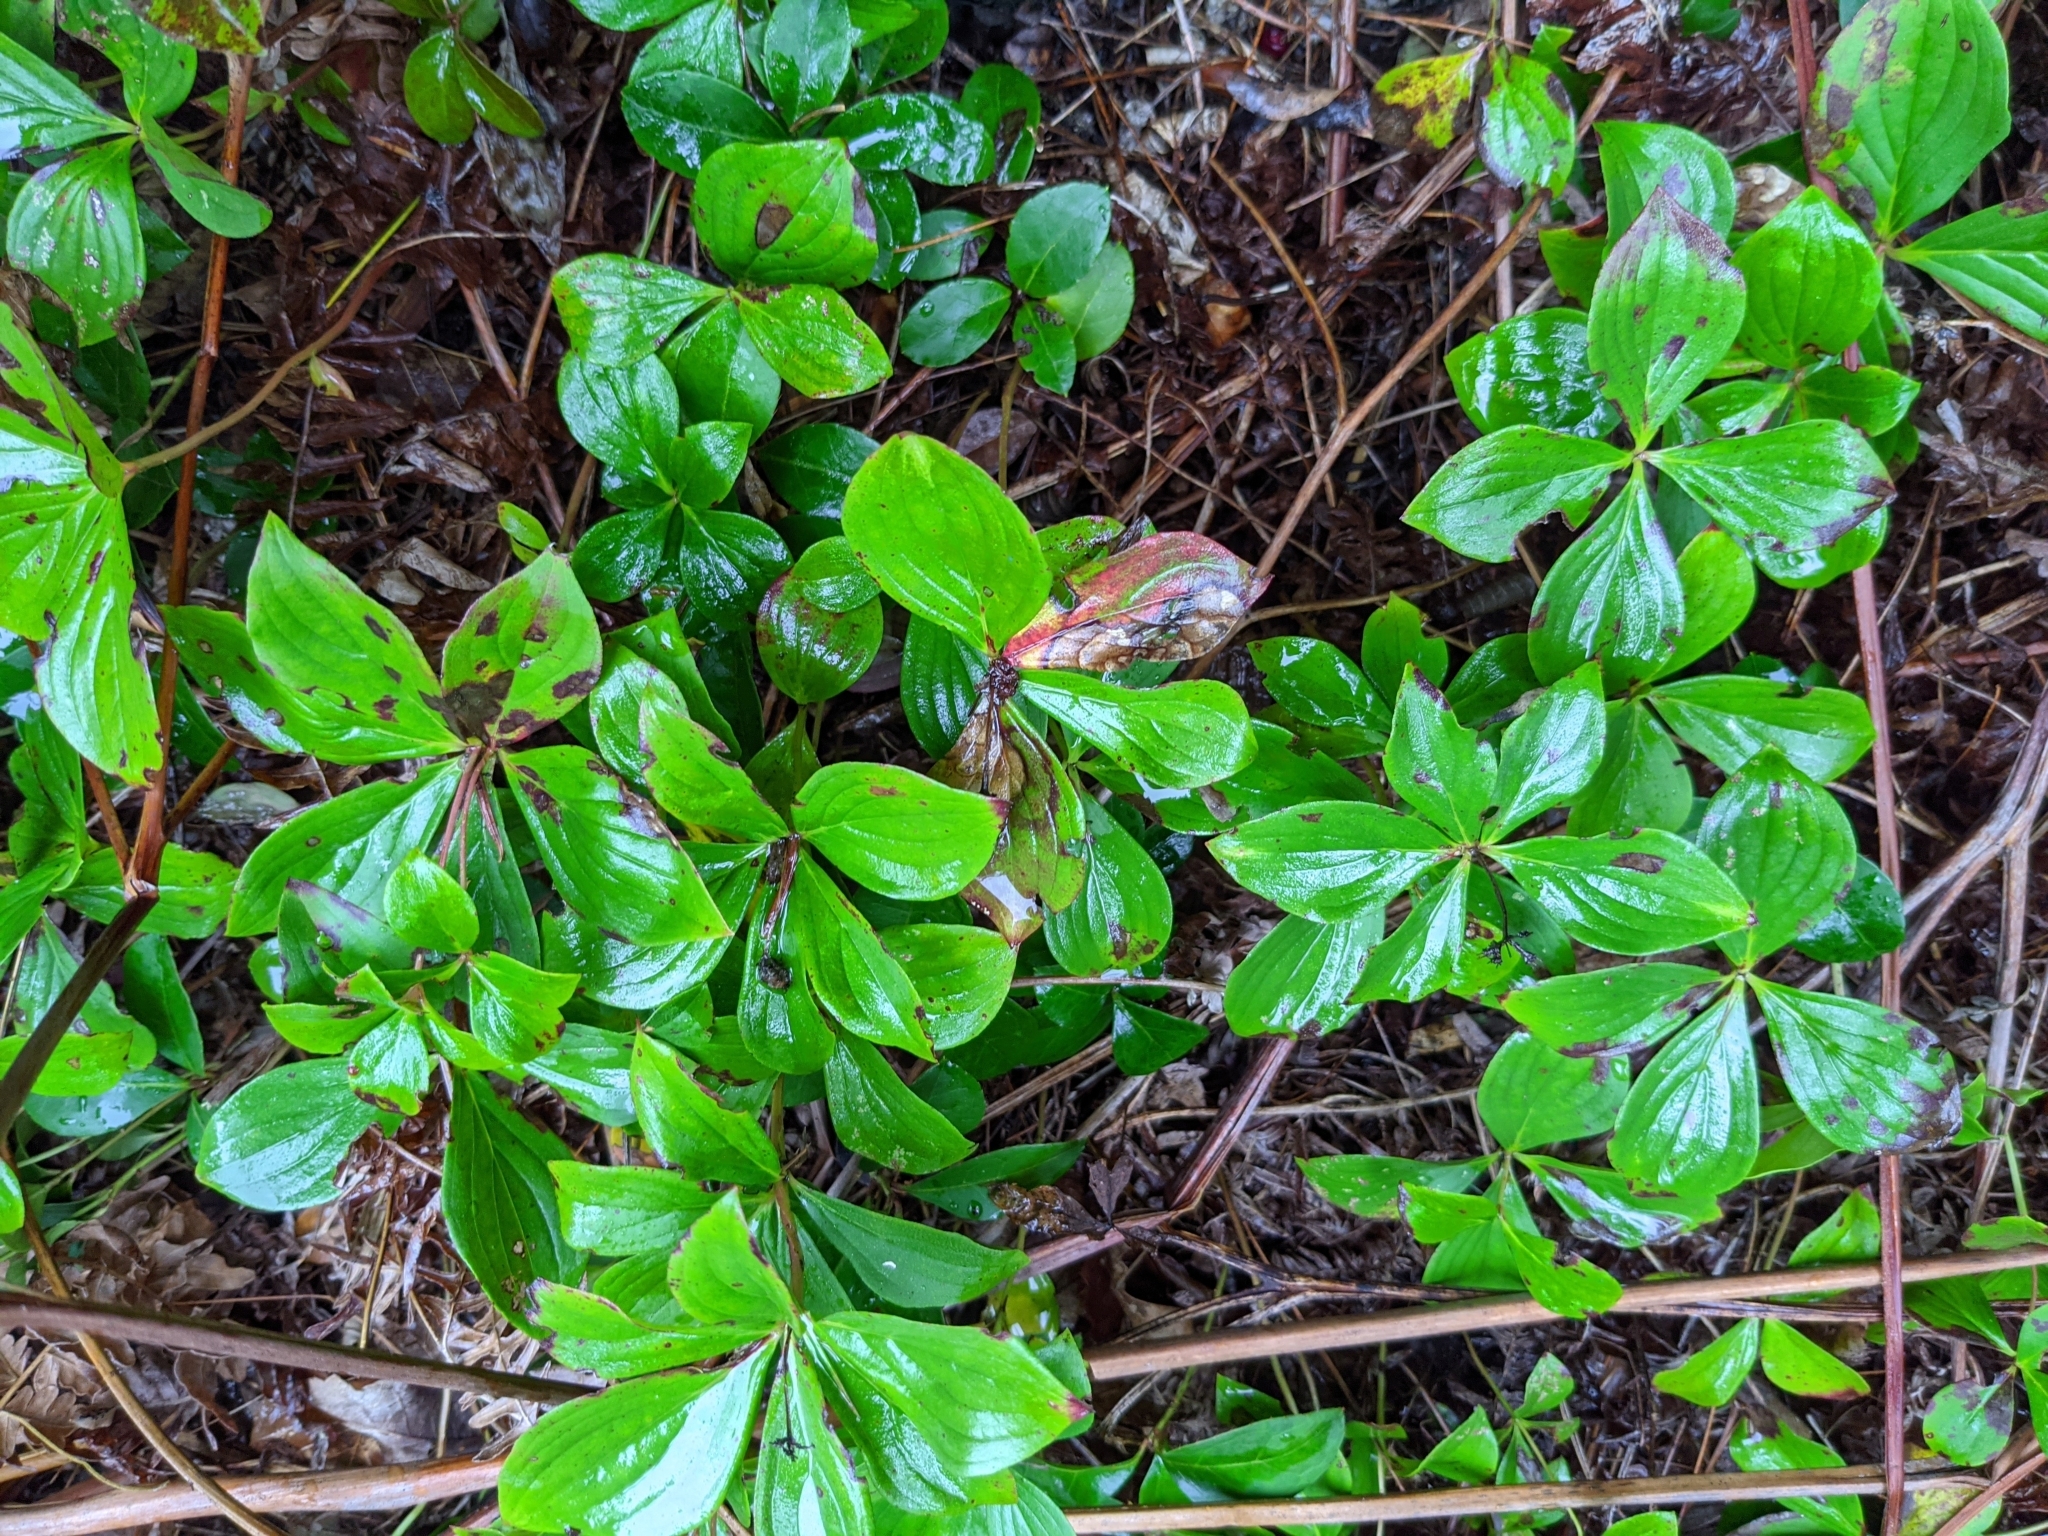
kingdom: Plantae
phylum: Tracheophyta
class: Magnoliopsida
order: Cornales
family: Cornaceae
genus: Cornus
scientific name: Cornus canadensis
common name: Creeping dogwood
